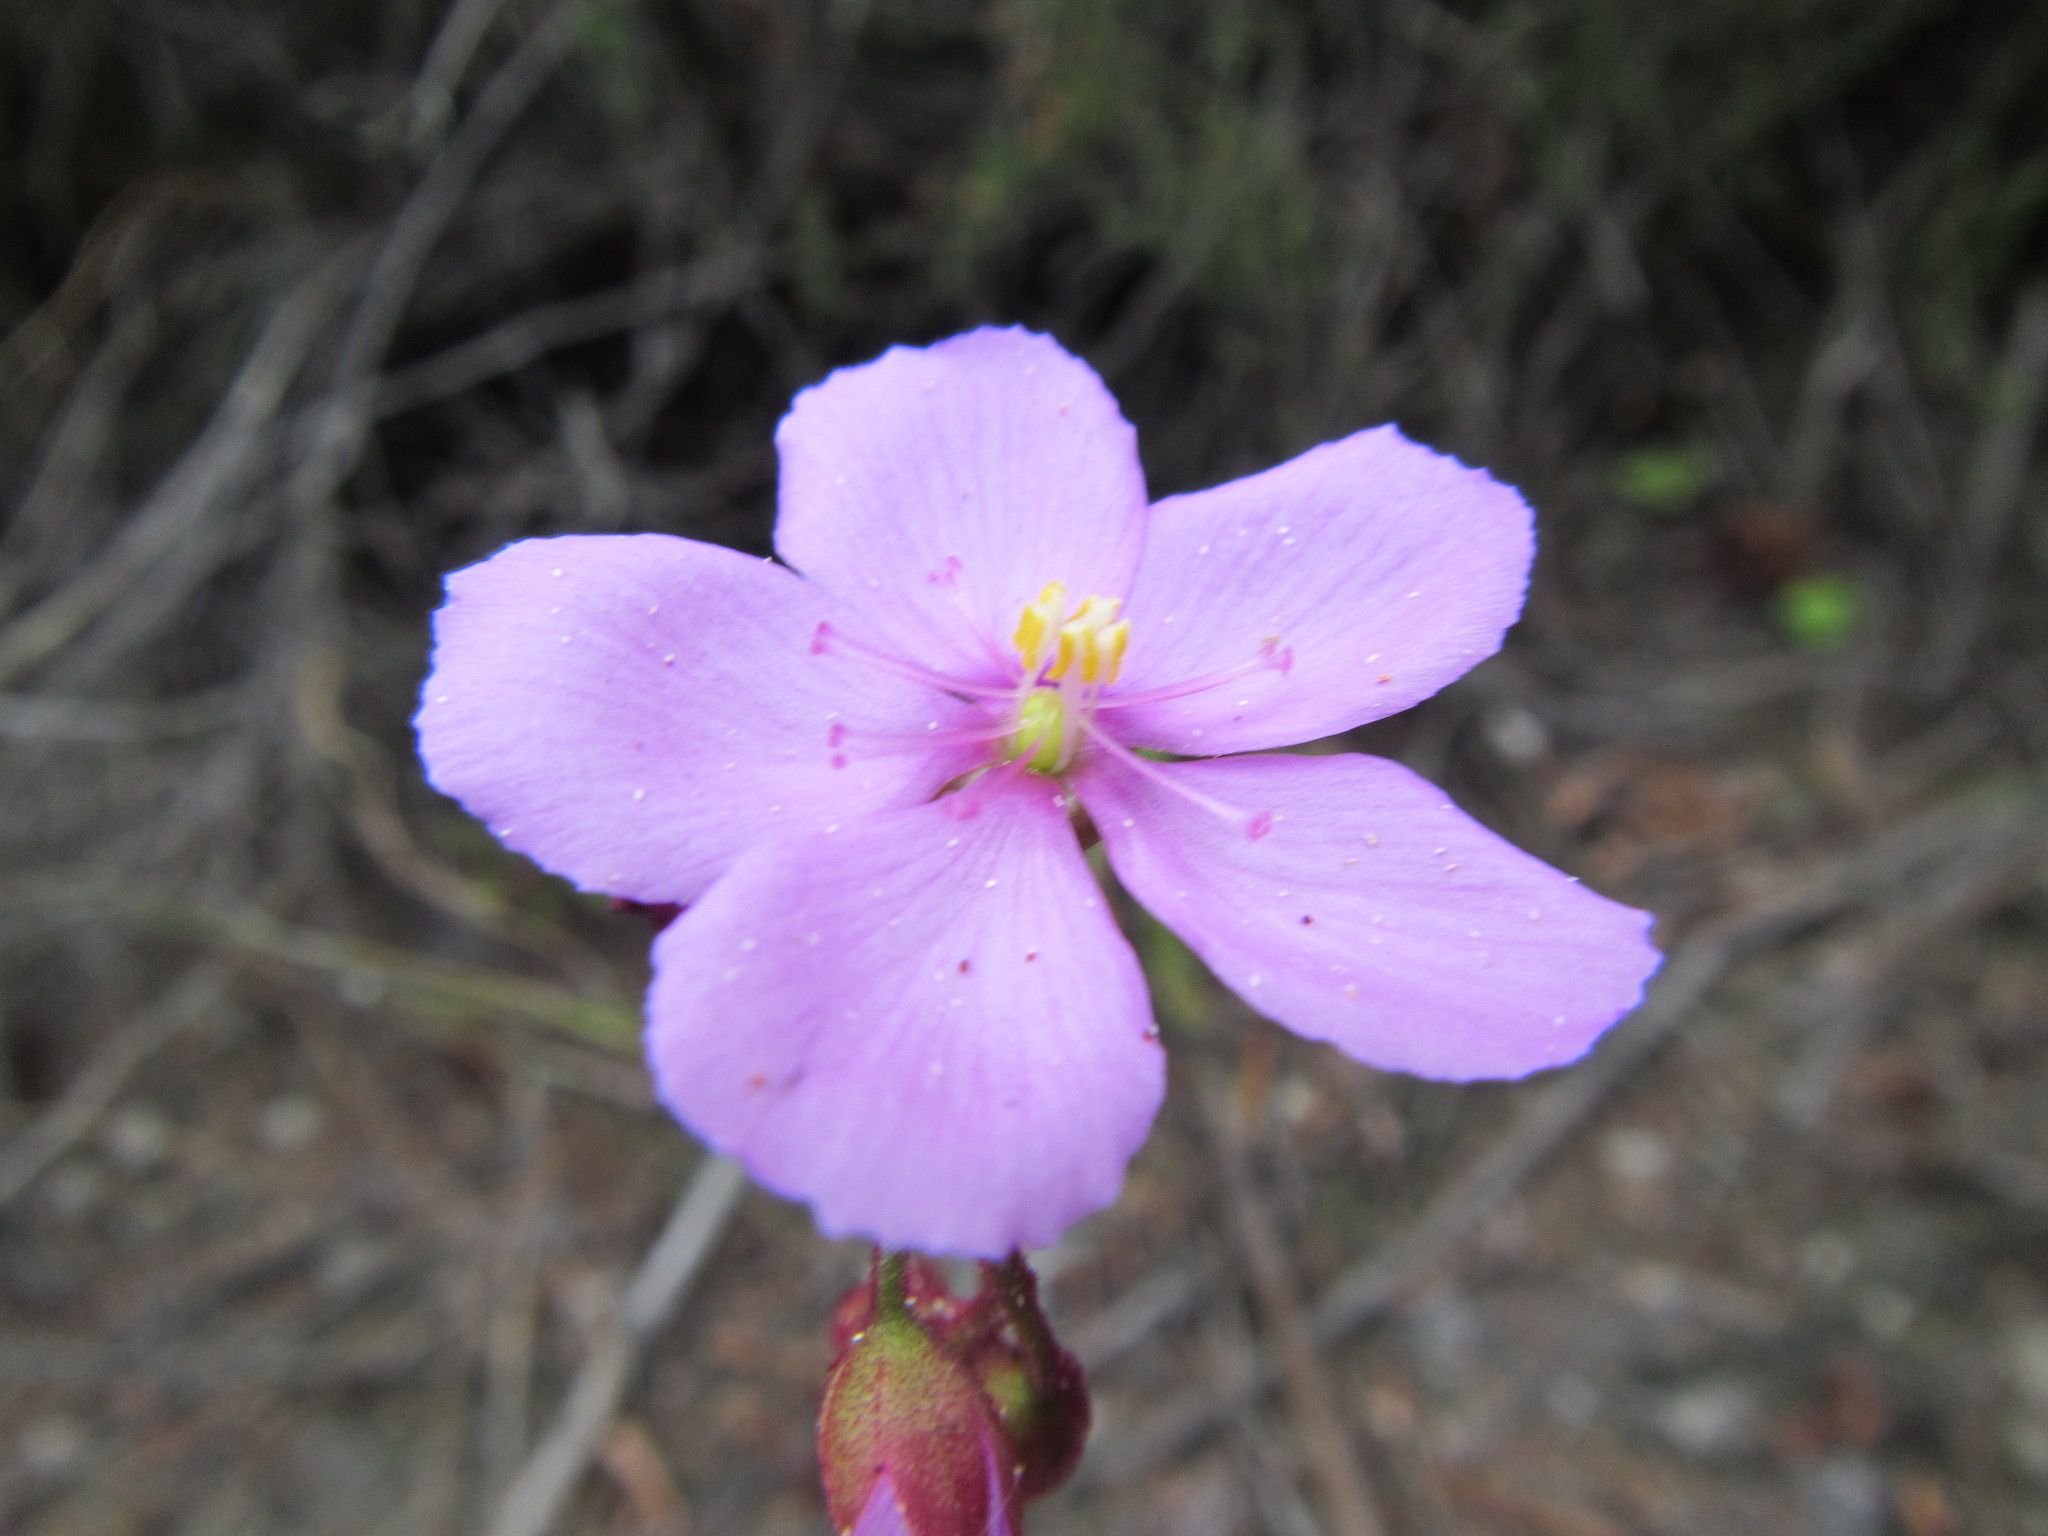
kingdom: Plantae
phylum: Tracheophyta
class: Magnoliopsida
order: Caryophyllales
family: Droseraceae
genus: Drosera
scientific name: Drosera ericgreenii
